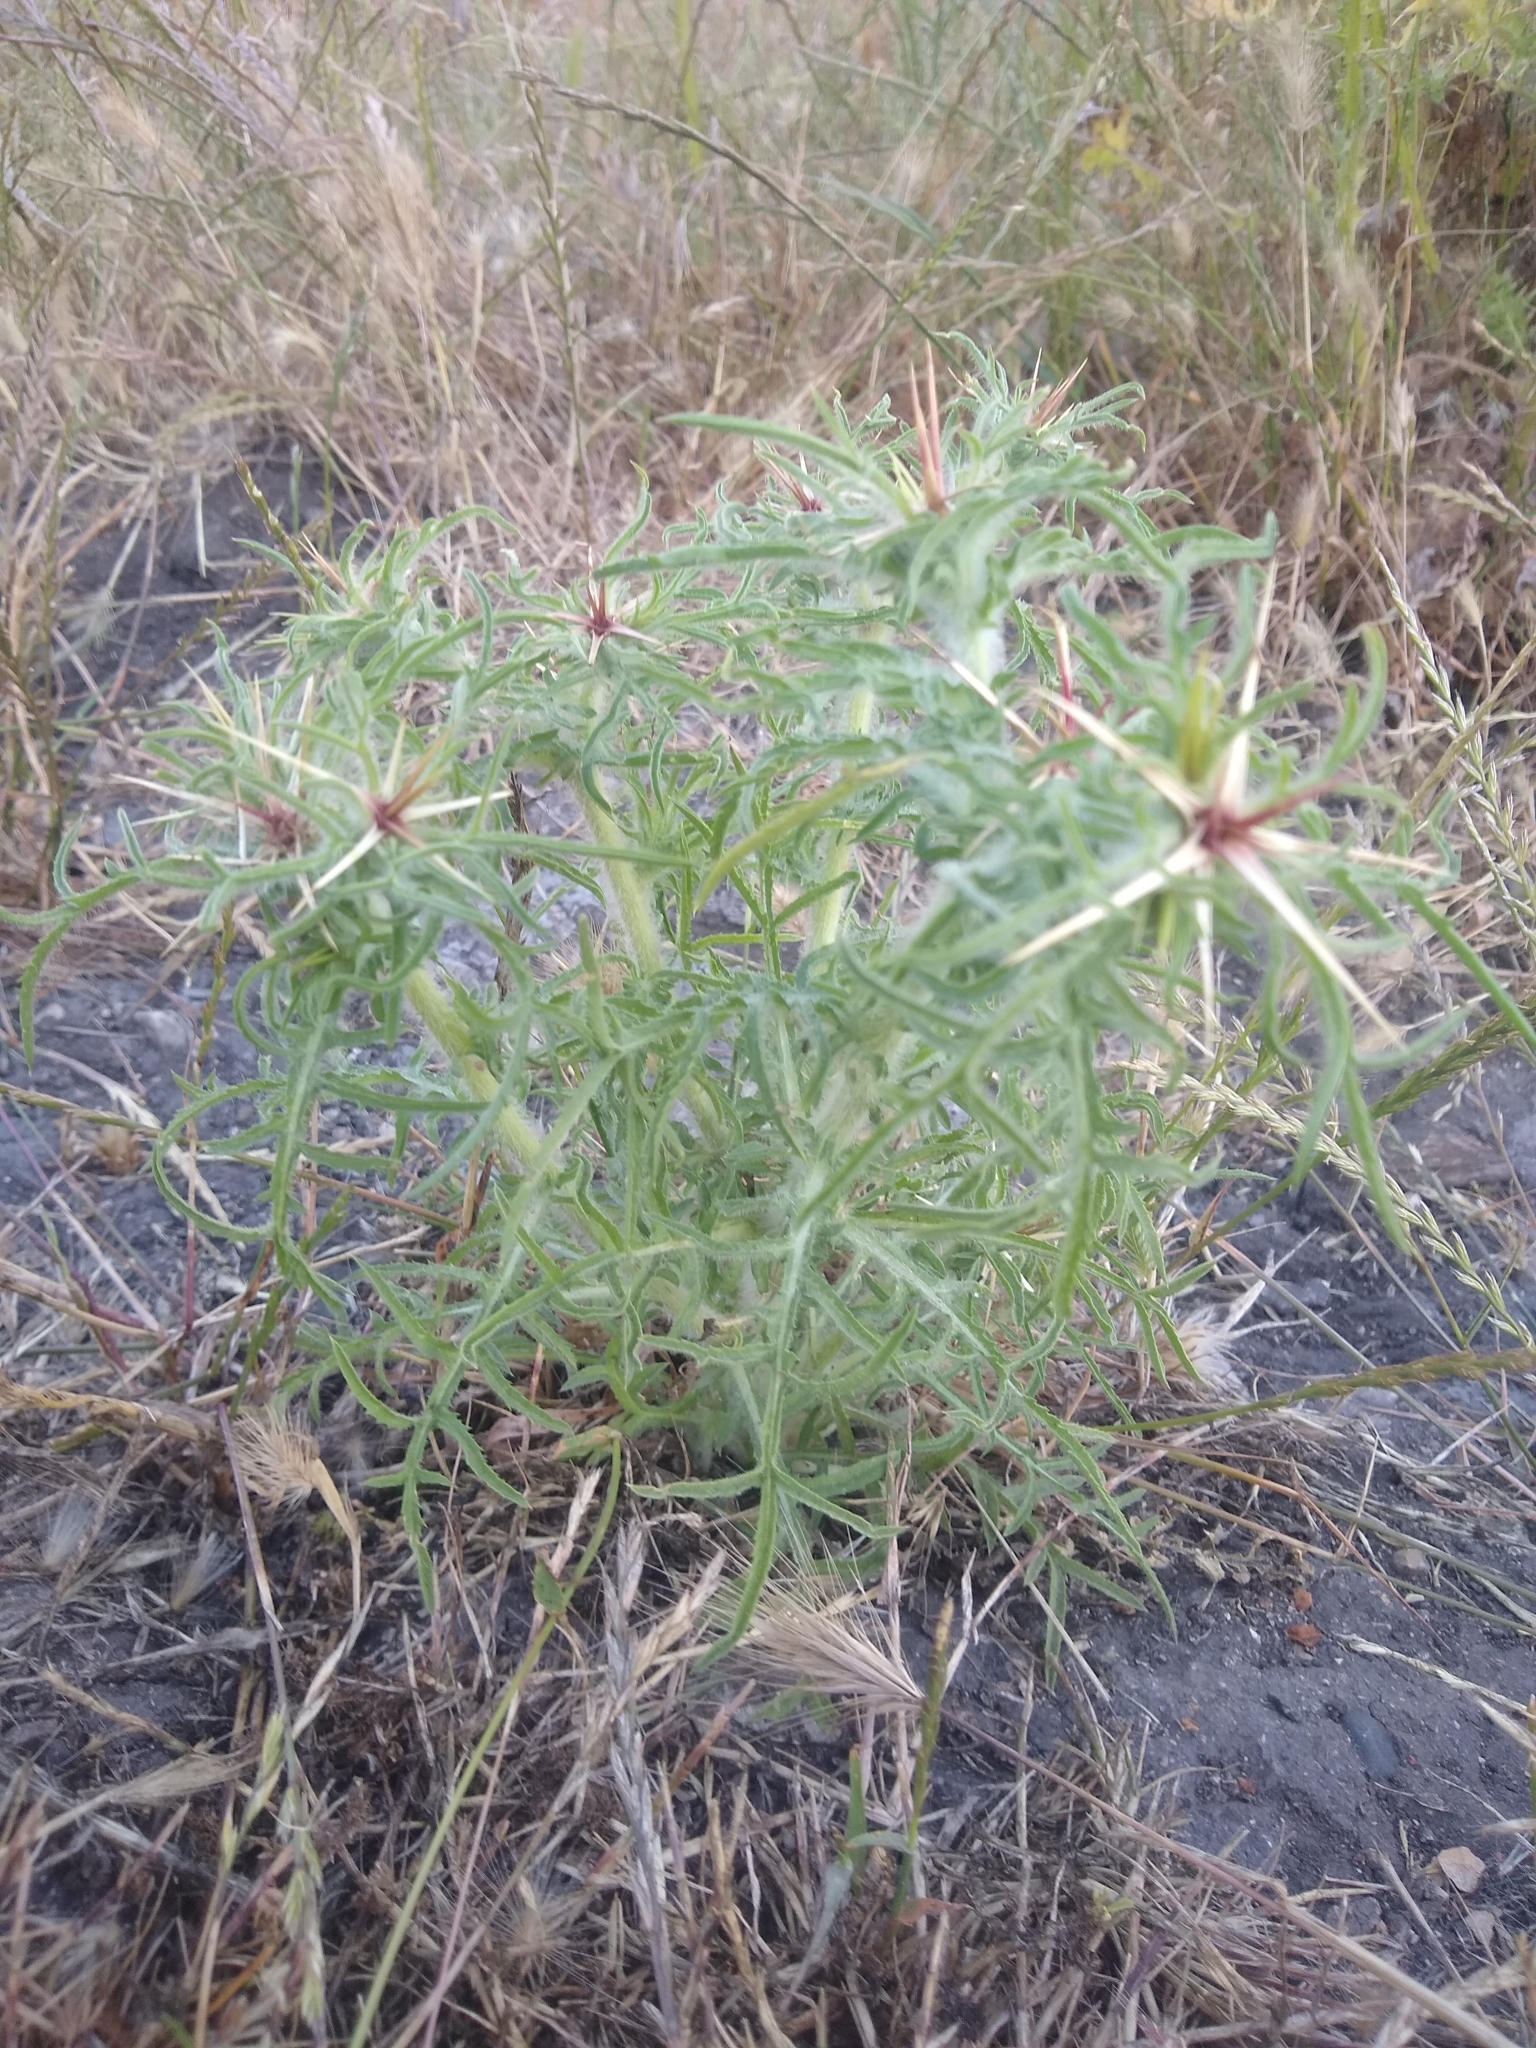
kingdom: Plantae
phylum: Tracheophyta
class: Magnoliopsida
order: Asterales
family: Asteraceae
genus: Centaurea
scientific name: Centaurea calcitrapa
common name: Red star-thistle
